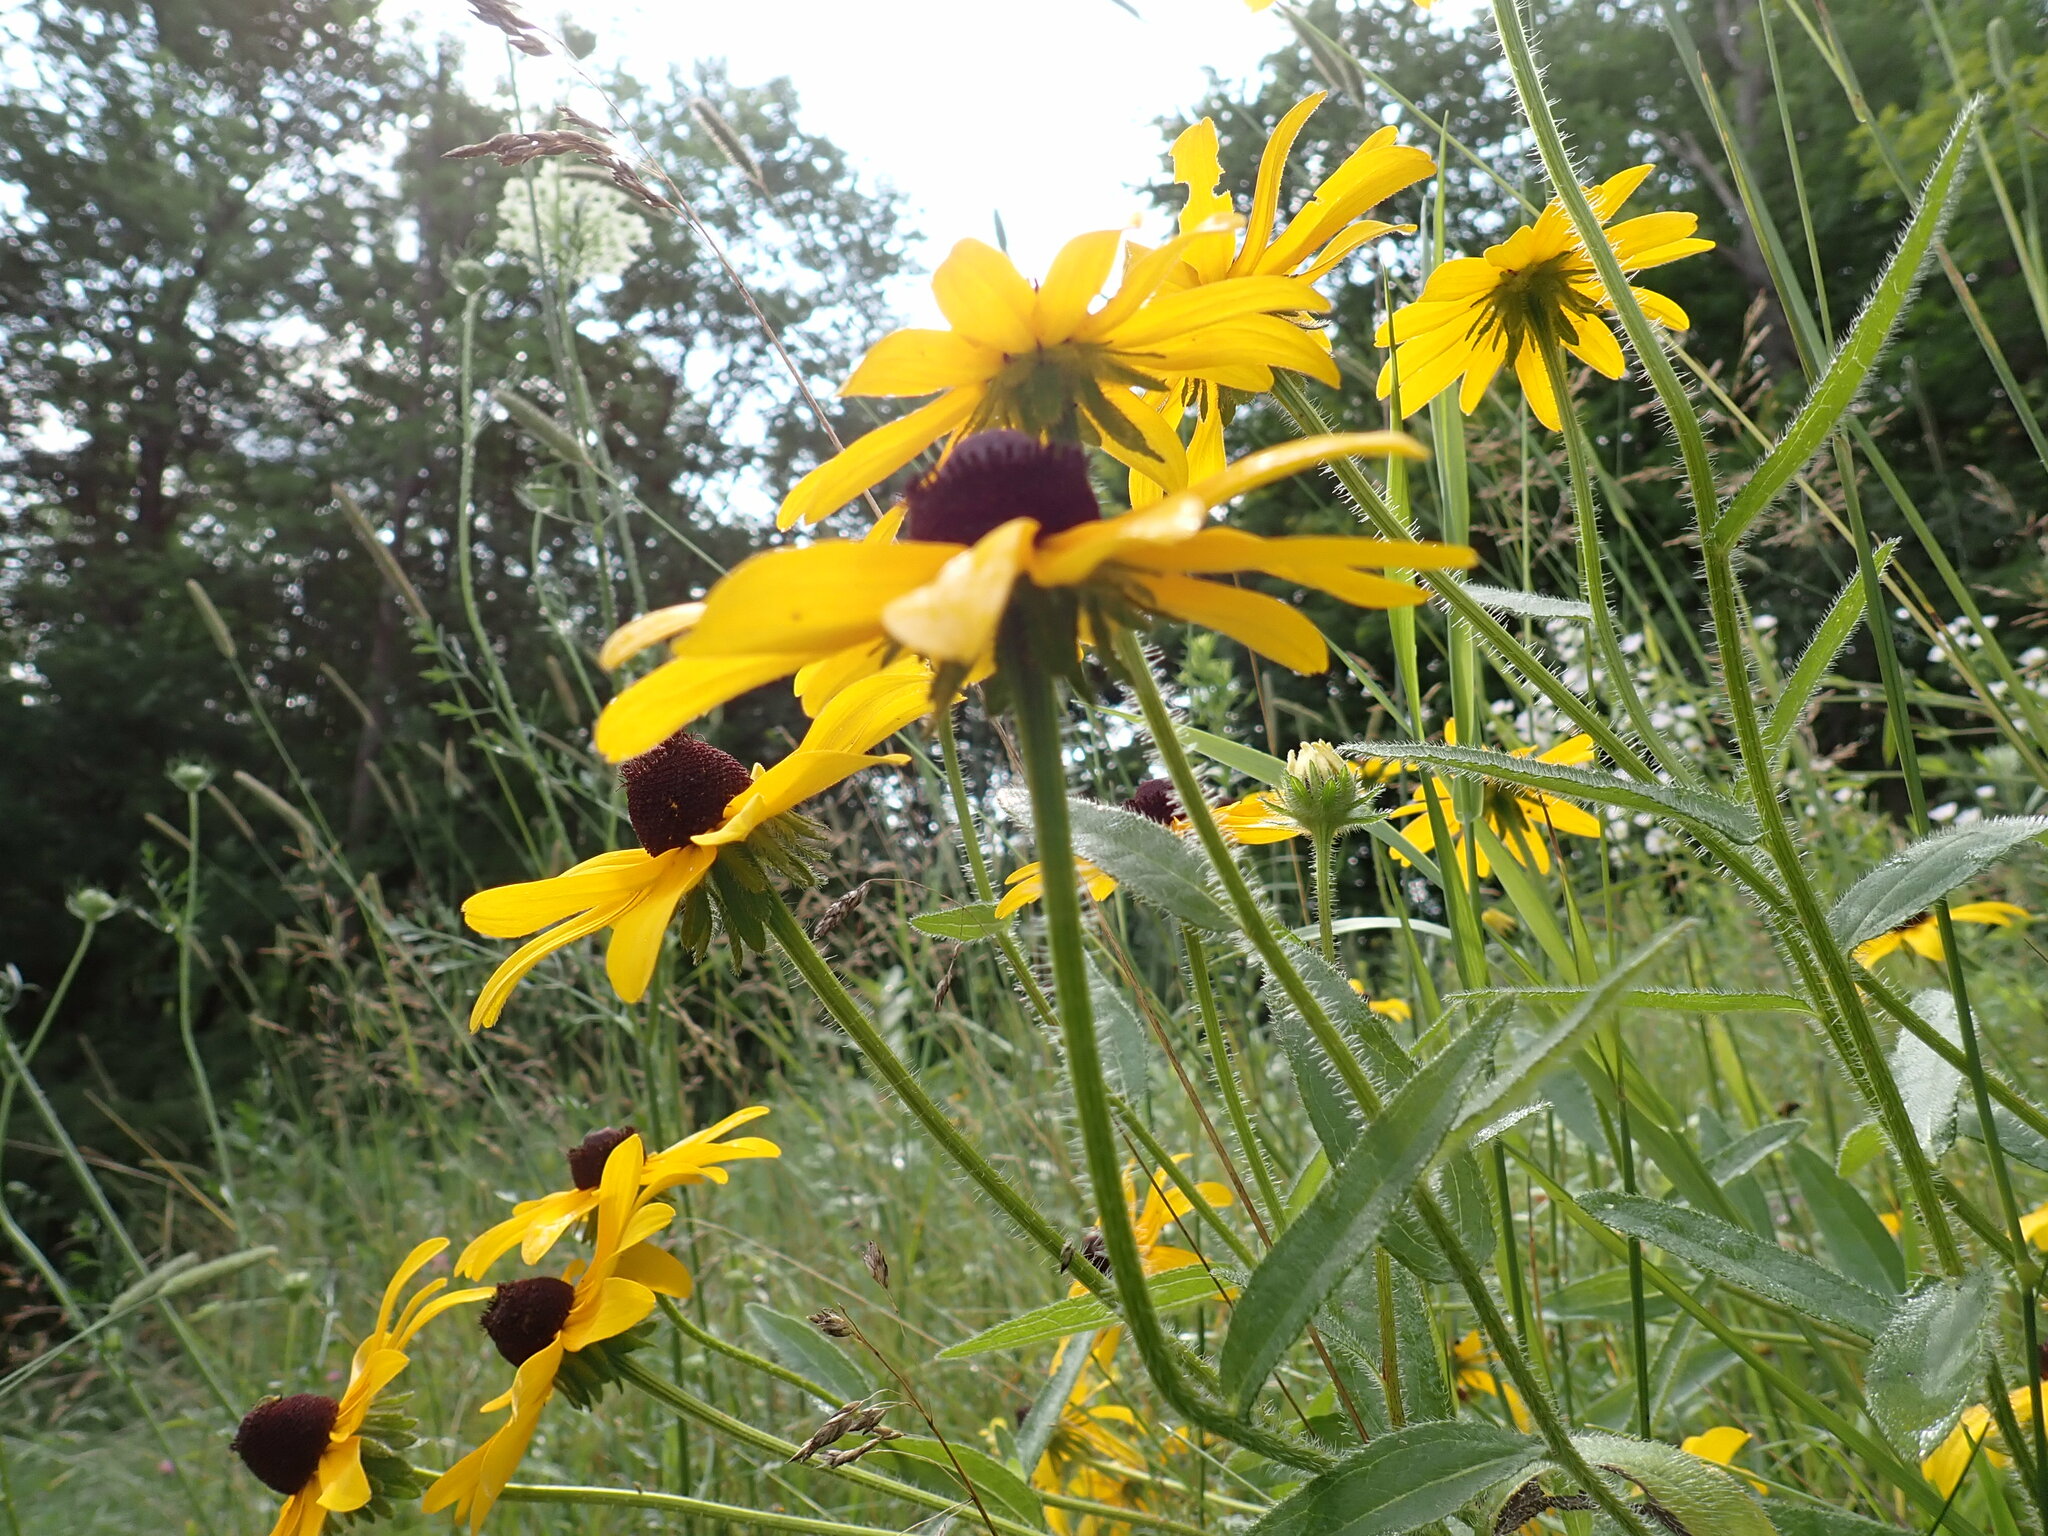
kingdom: Plantae
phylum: Tracheophyta
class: Magnoliopsida
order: Asterales
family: Asteraceae
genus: Rudbeckia
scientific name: Rudbeckia hirta
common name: Black-eyed-susan
